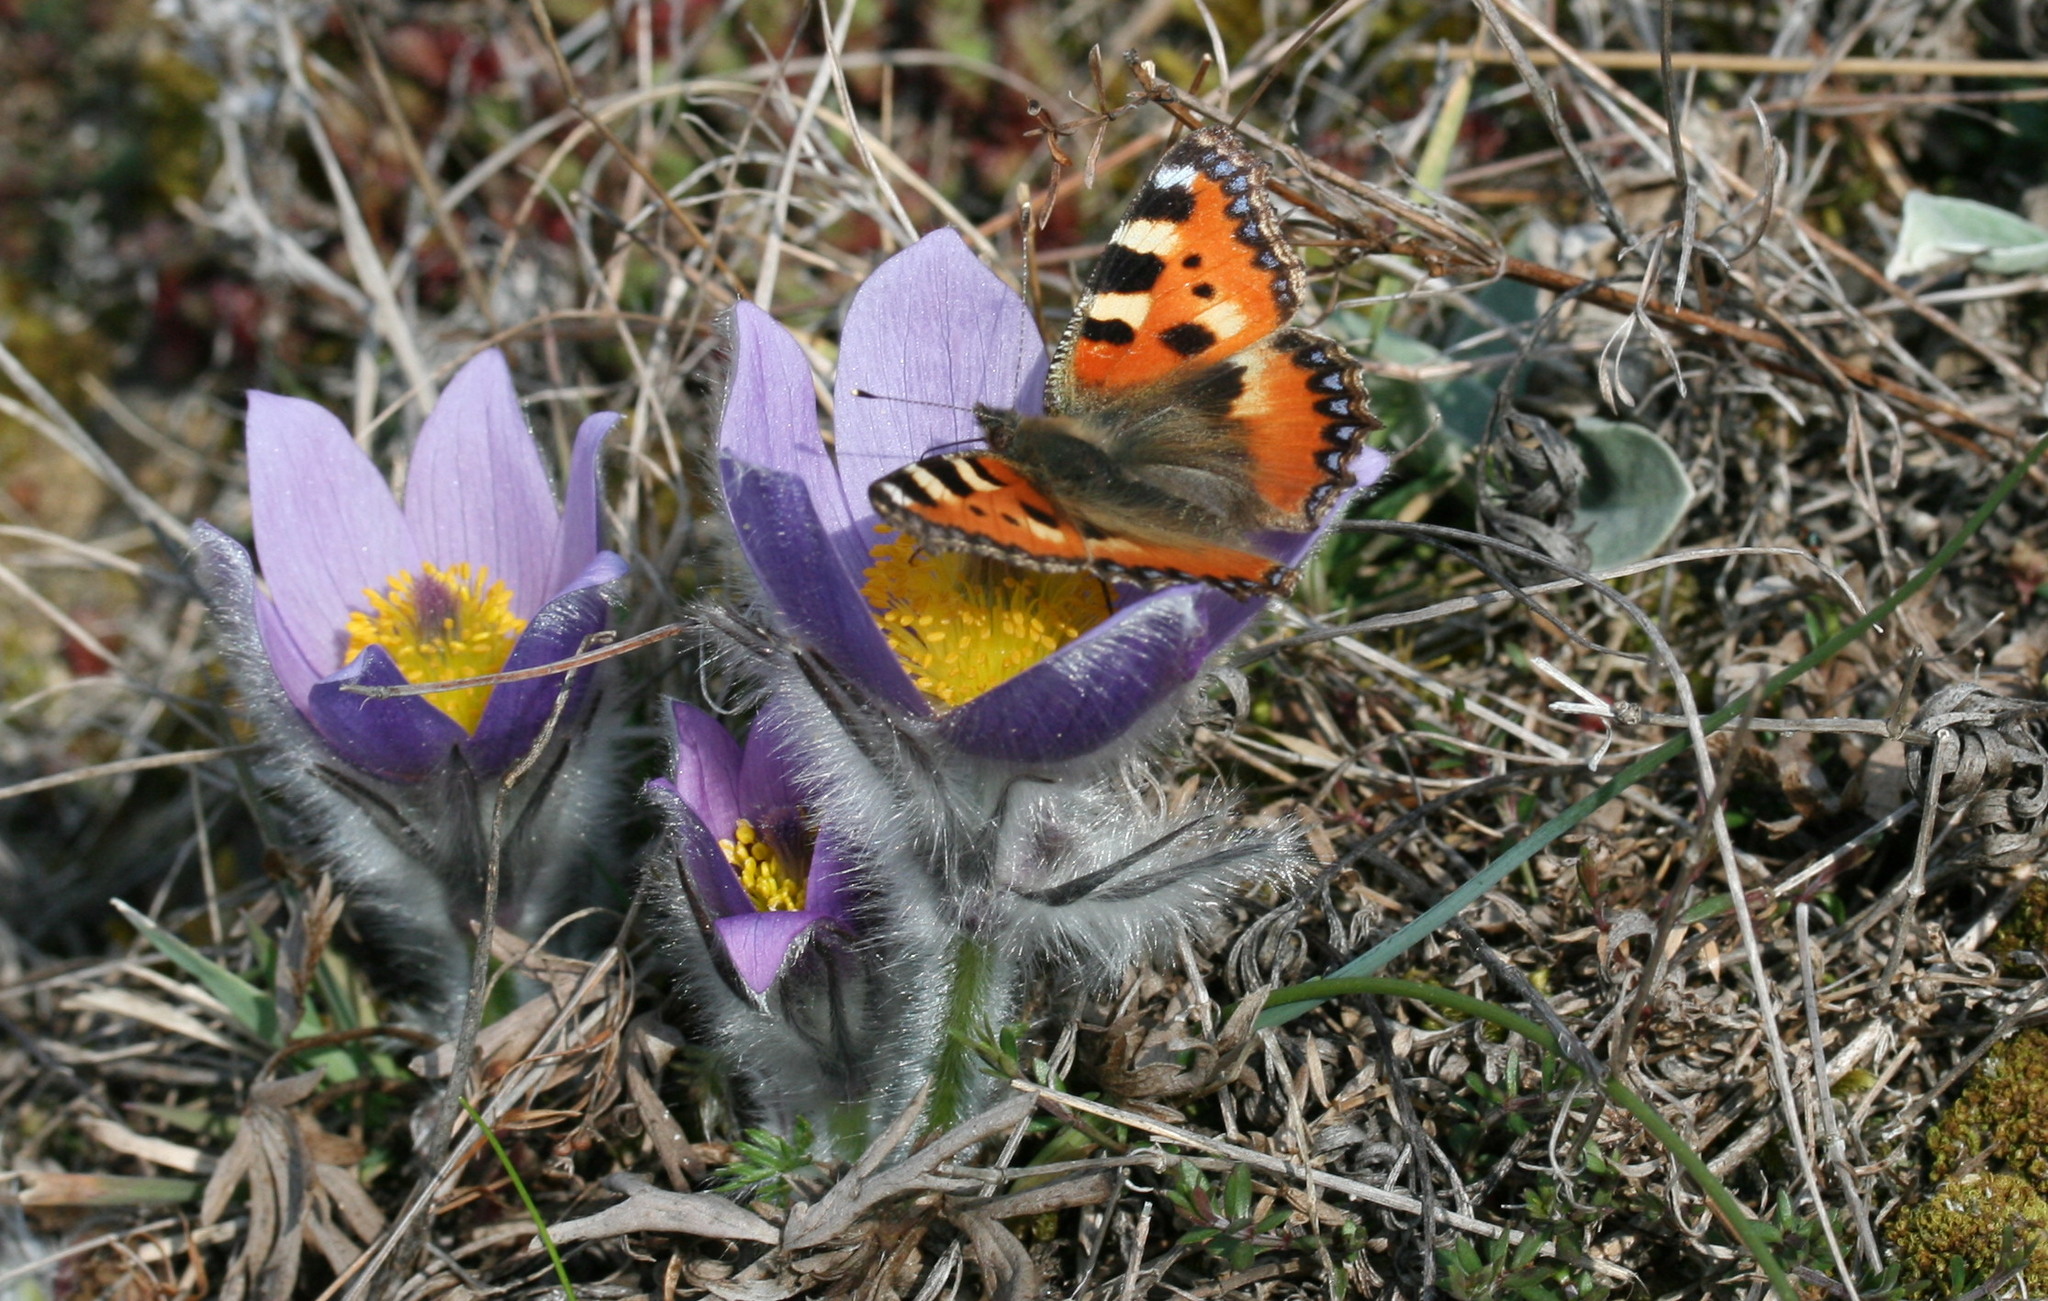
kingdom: Animalia
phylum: Arthropoda
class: Insecta
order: Lepidoptera
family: Nymphalidae
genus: Aglais
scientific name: Aglais urticae
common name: Small tortoiseshell
